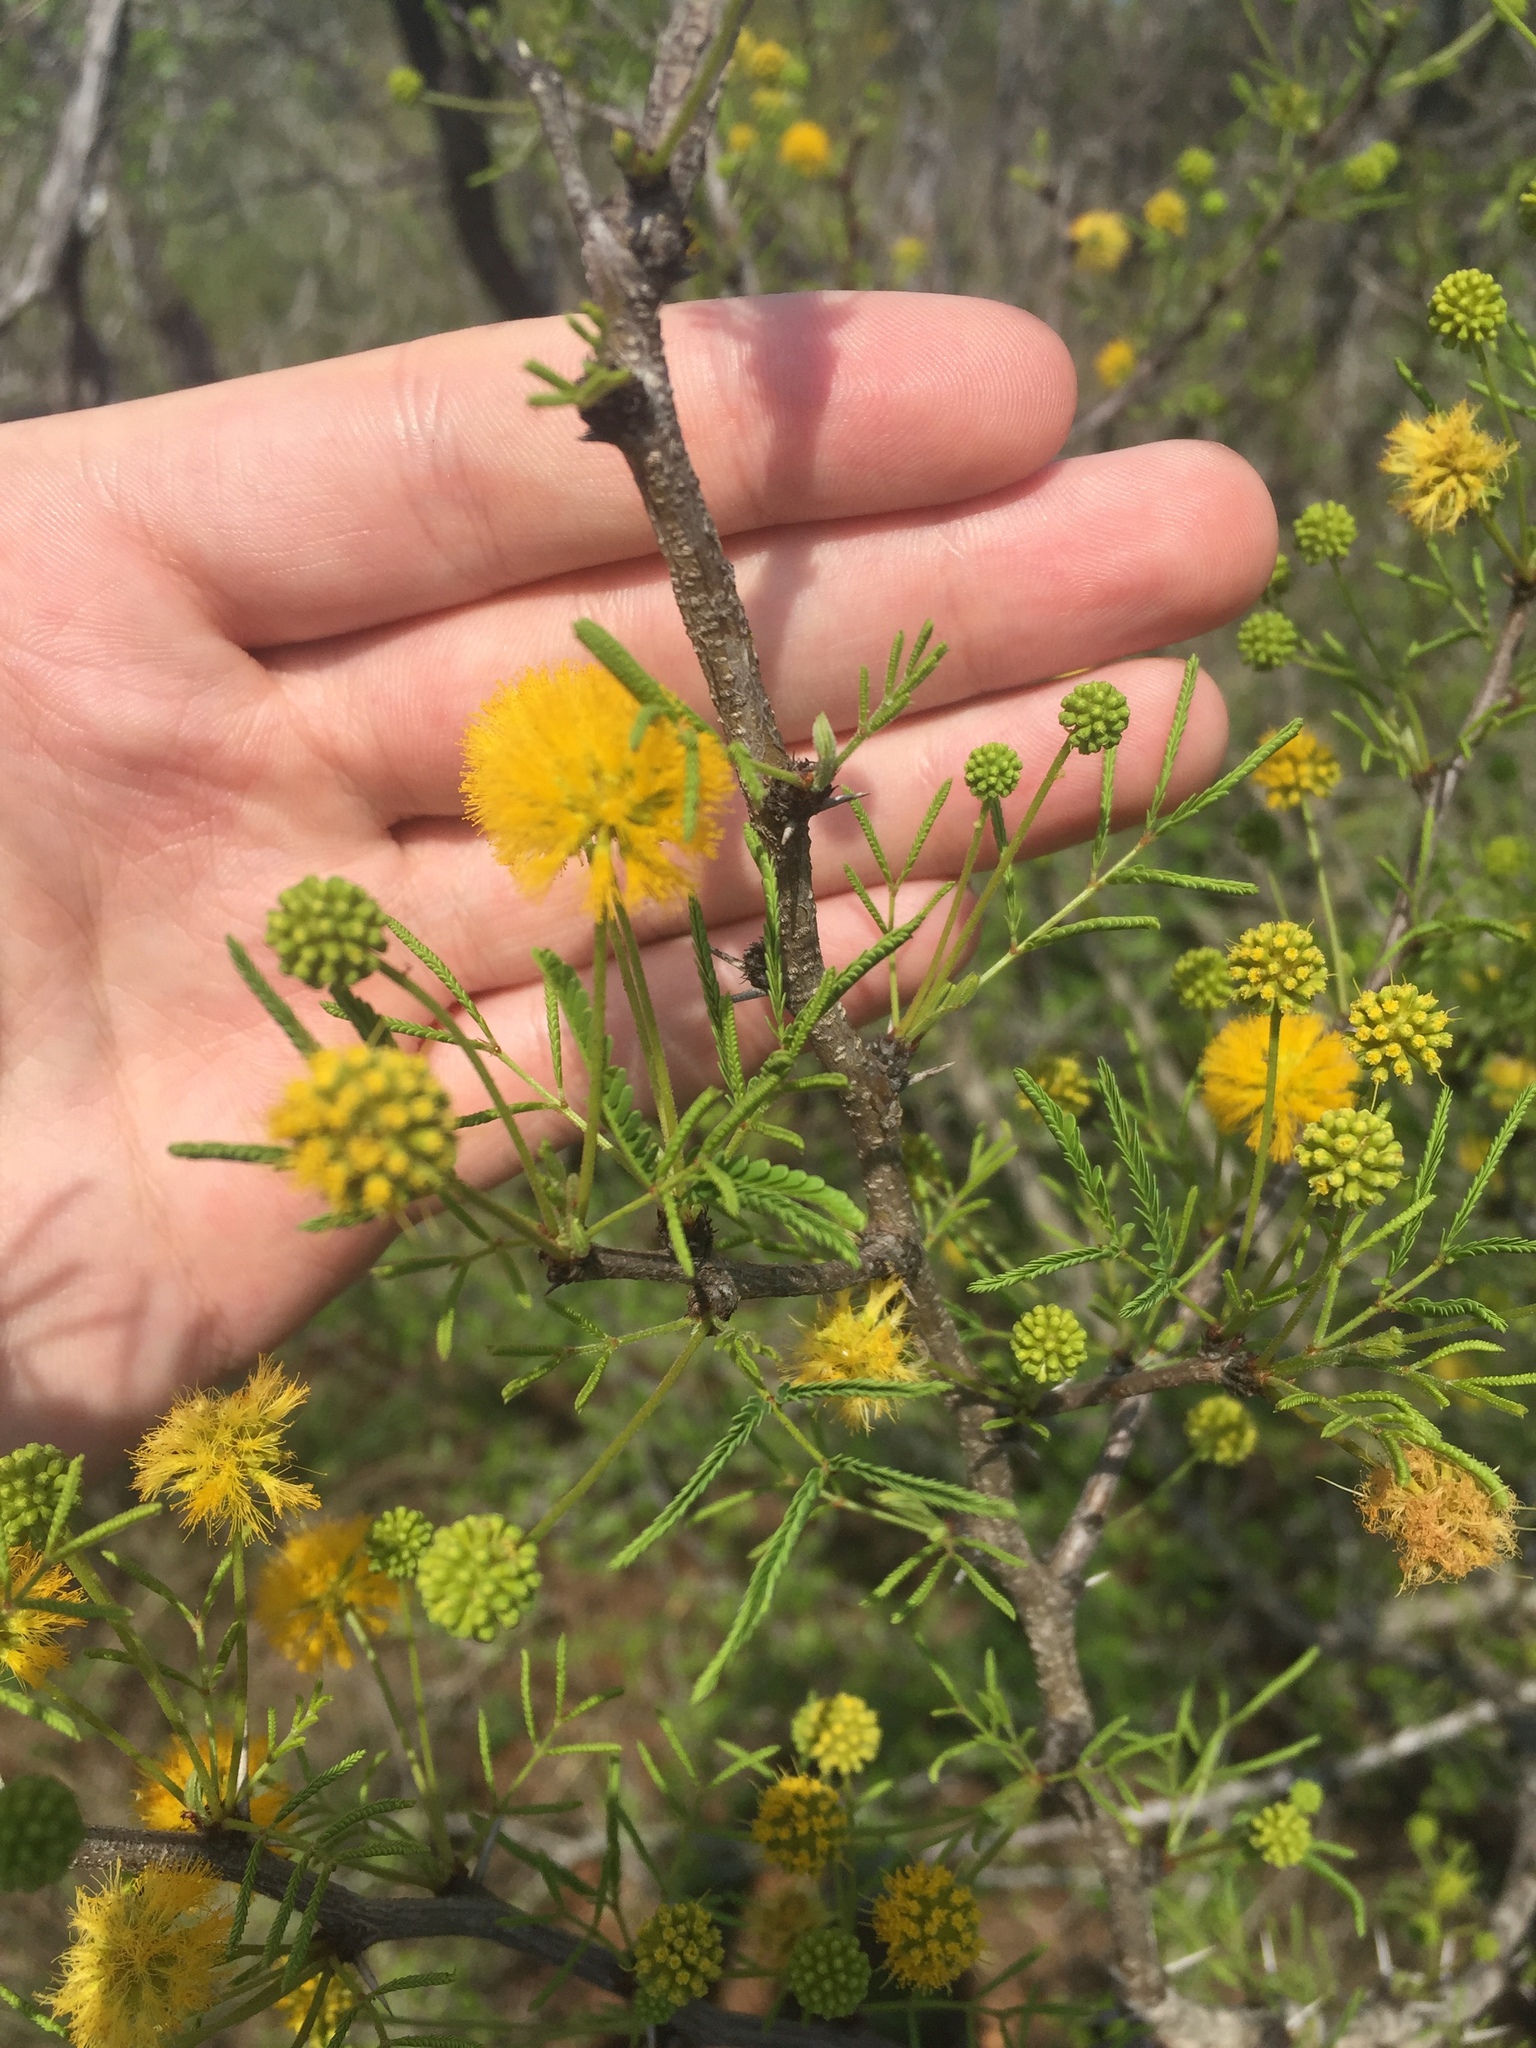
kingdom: Plantae
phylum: Tracheophyta
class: Magnoliopsida
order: Fabales
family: Fabaceae
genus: Vachellia
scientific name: Vachellia schaffneri
